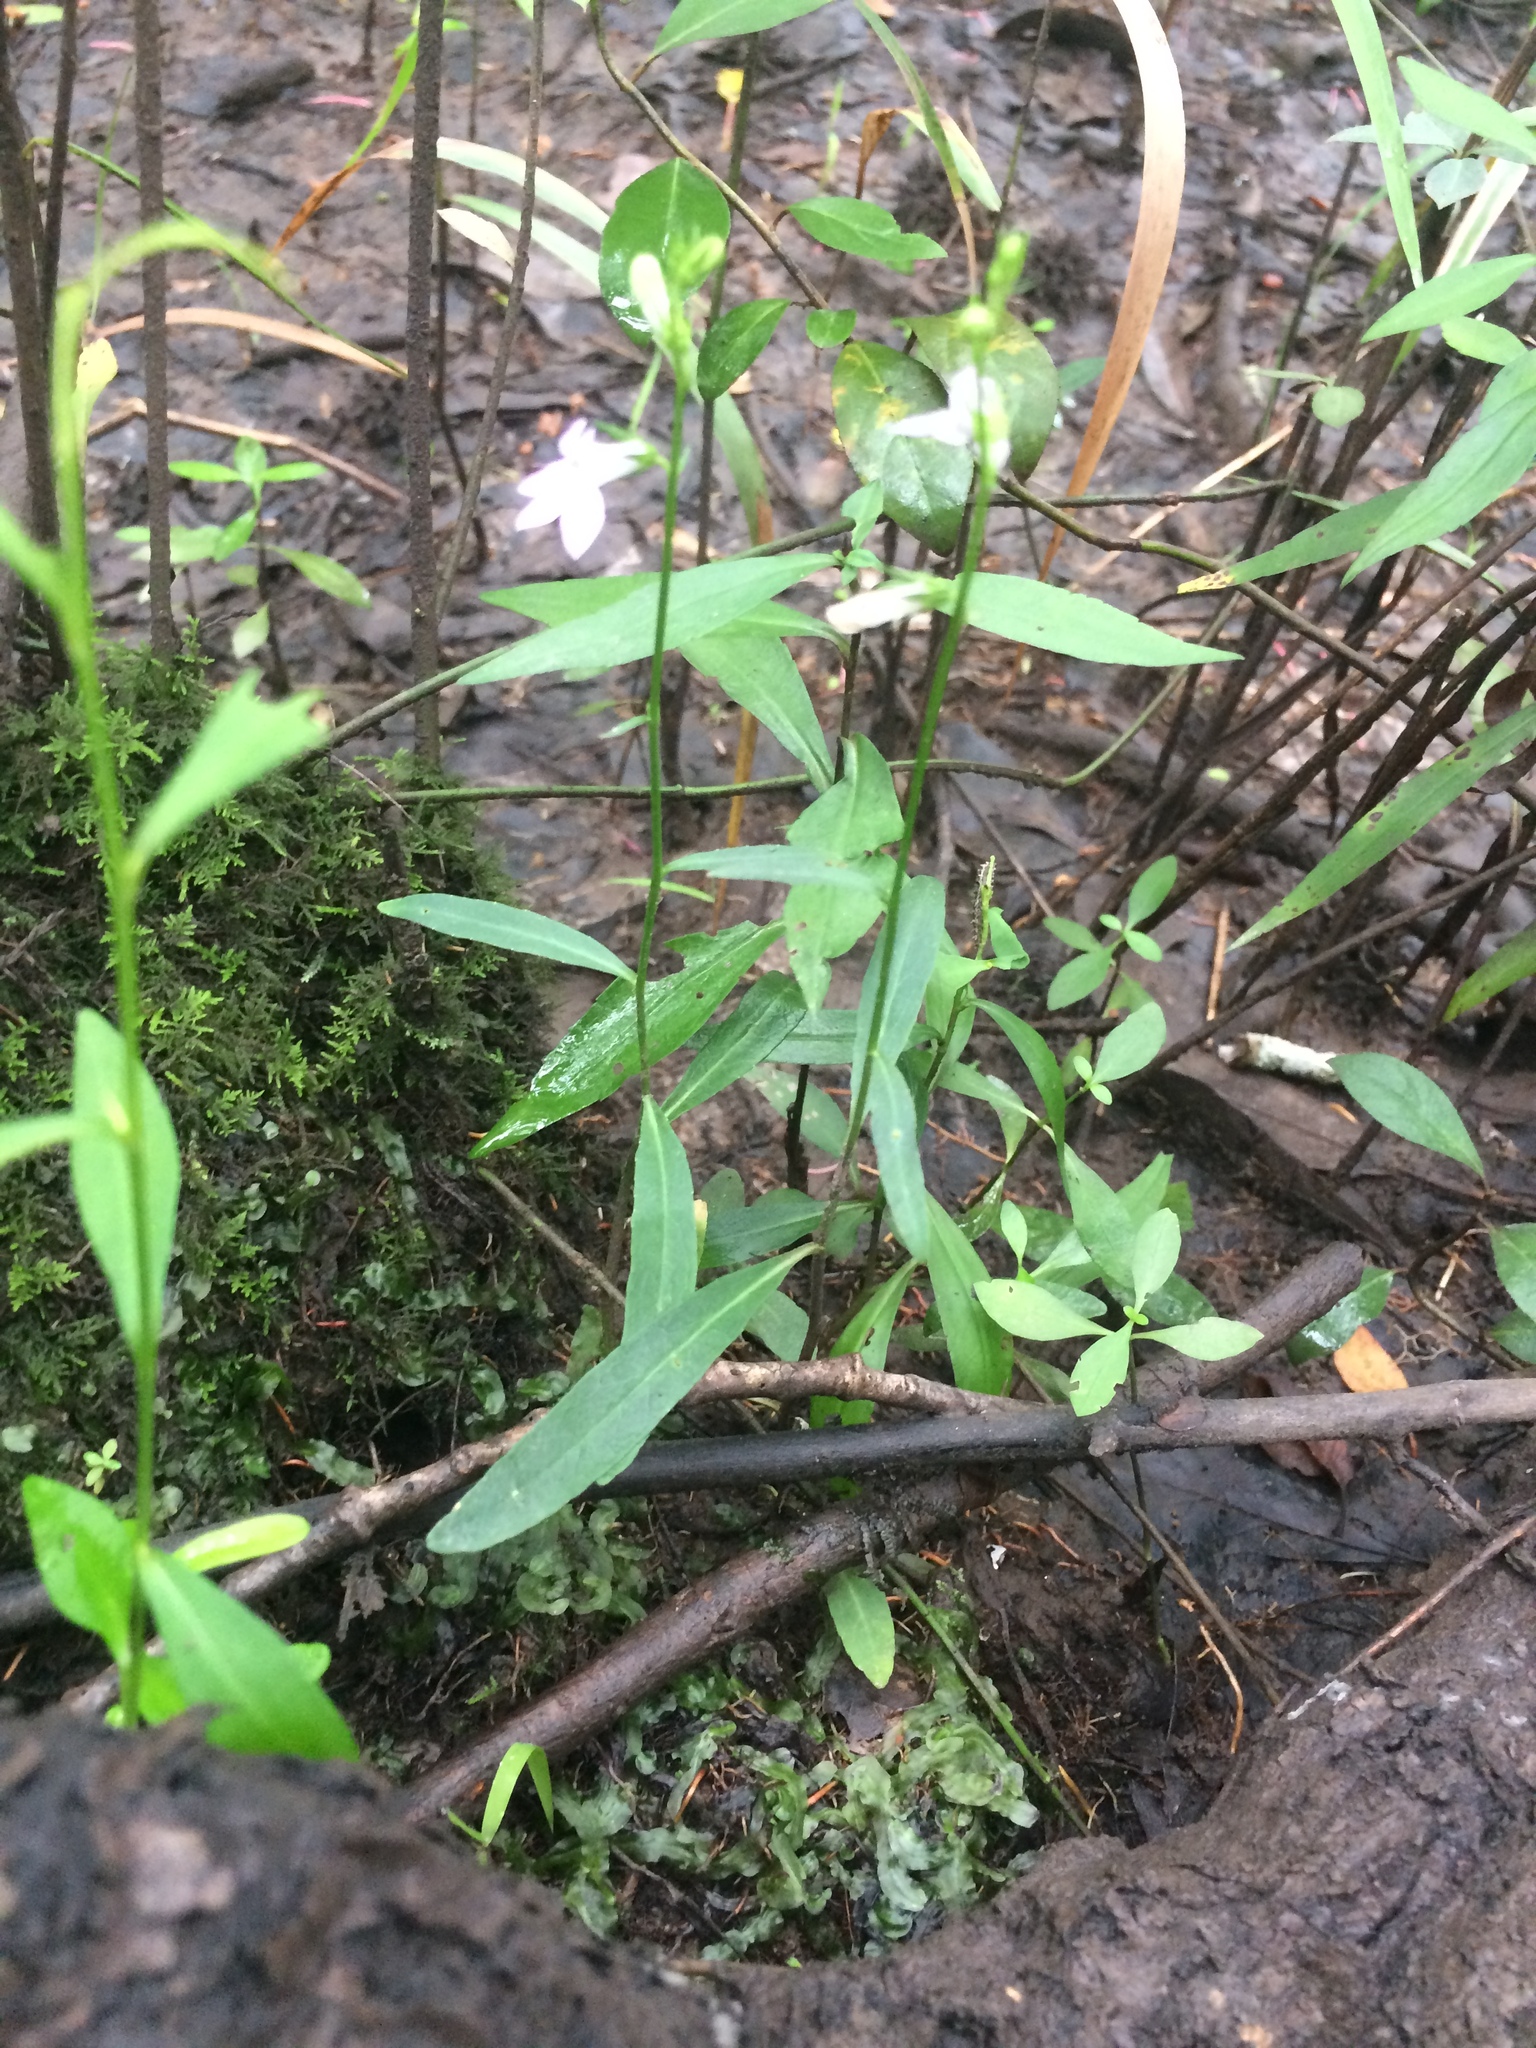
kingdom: Plantae
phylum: Tracheophyta
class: Magnoliopsida
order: Asterales
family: Campanulaceae
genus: Lobelia
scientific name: Lobelia flaccidifolia
